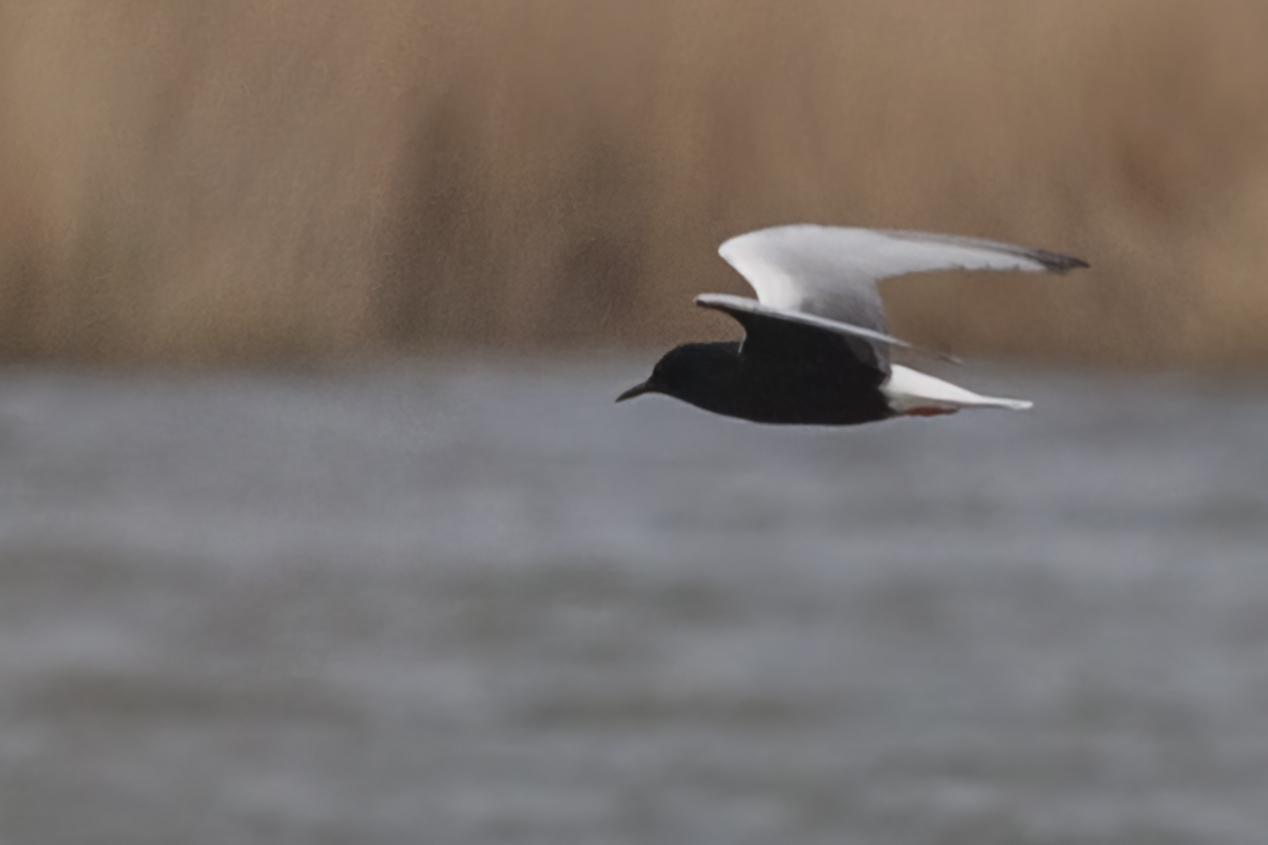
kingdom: Animalia
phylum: Chordata
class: Aves
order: Charadriiformes
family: Laridae
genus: Chlidonias
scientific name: Chlidonias leucopterus
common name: White-winged tern
